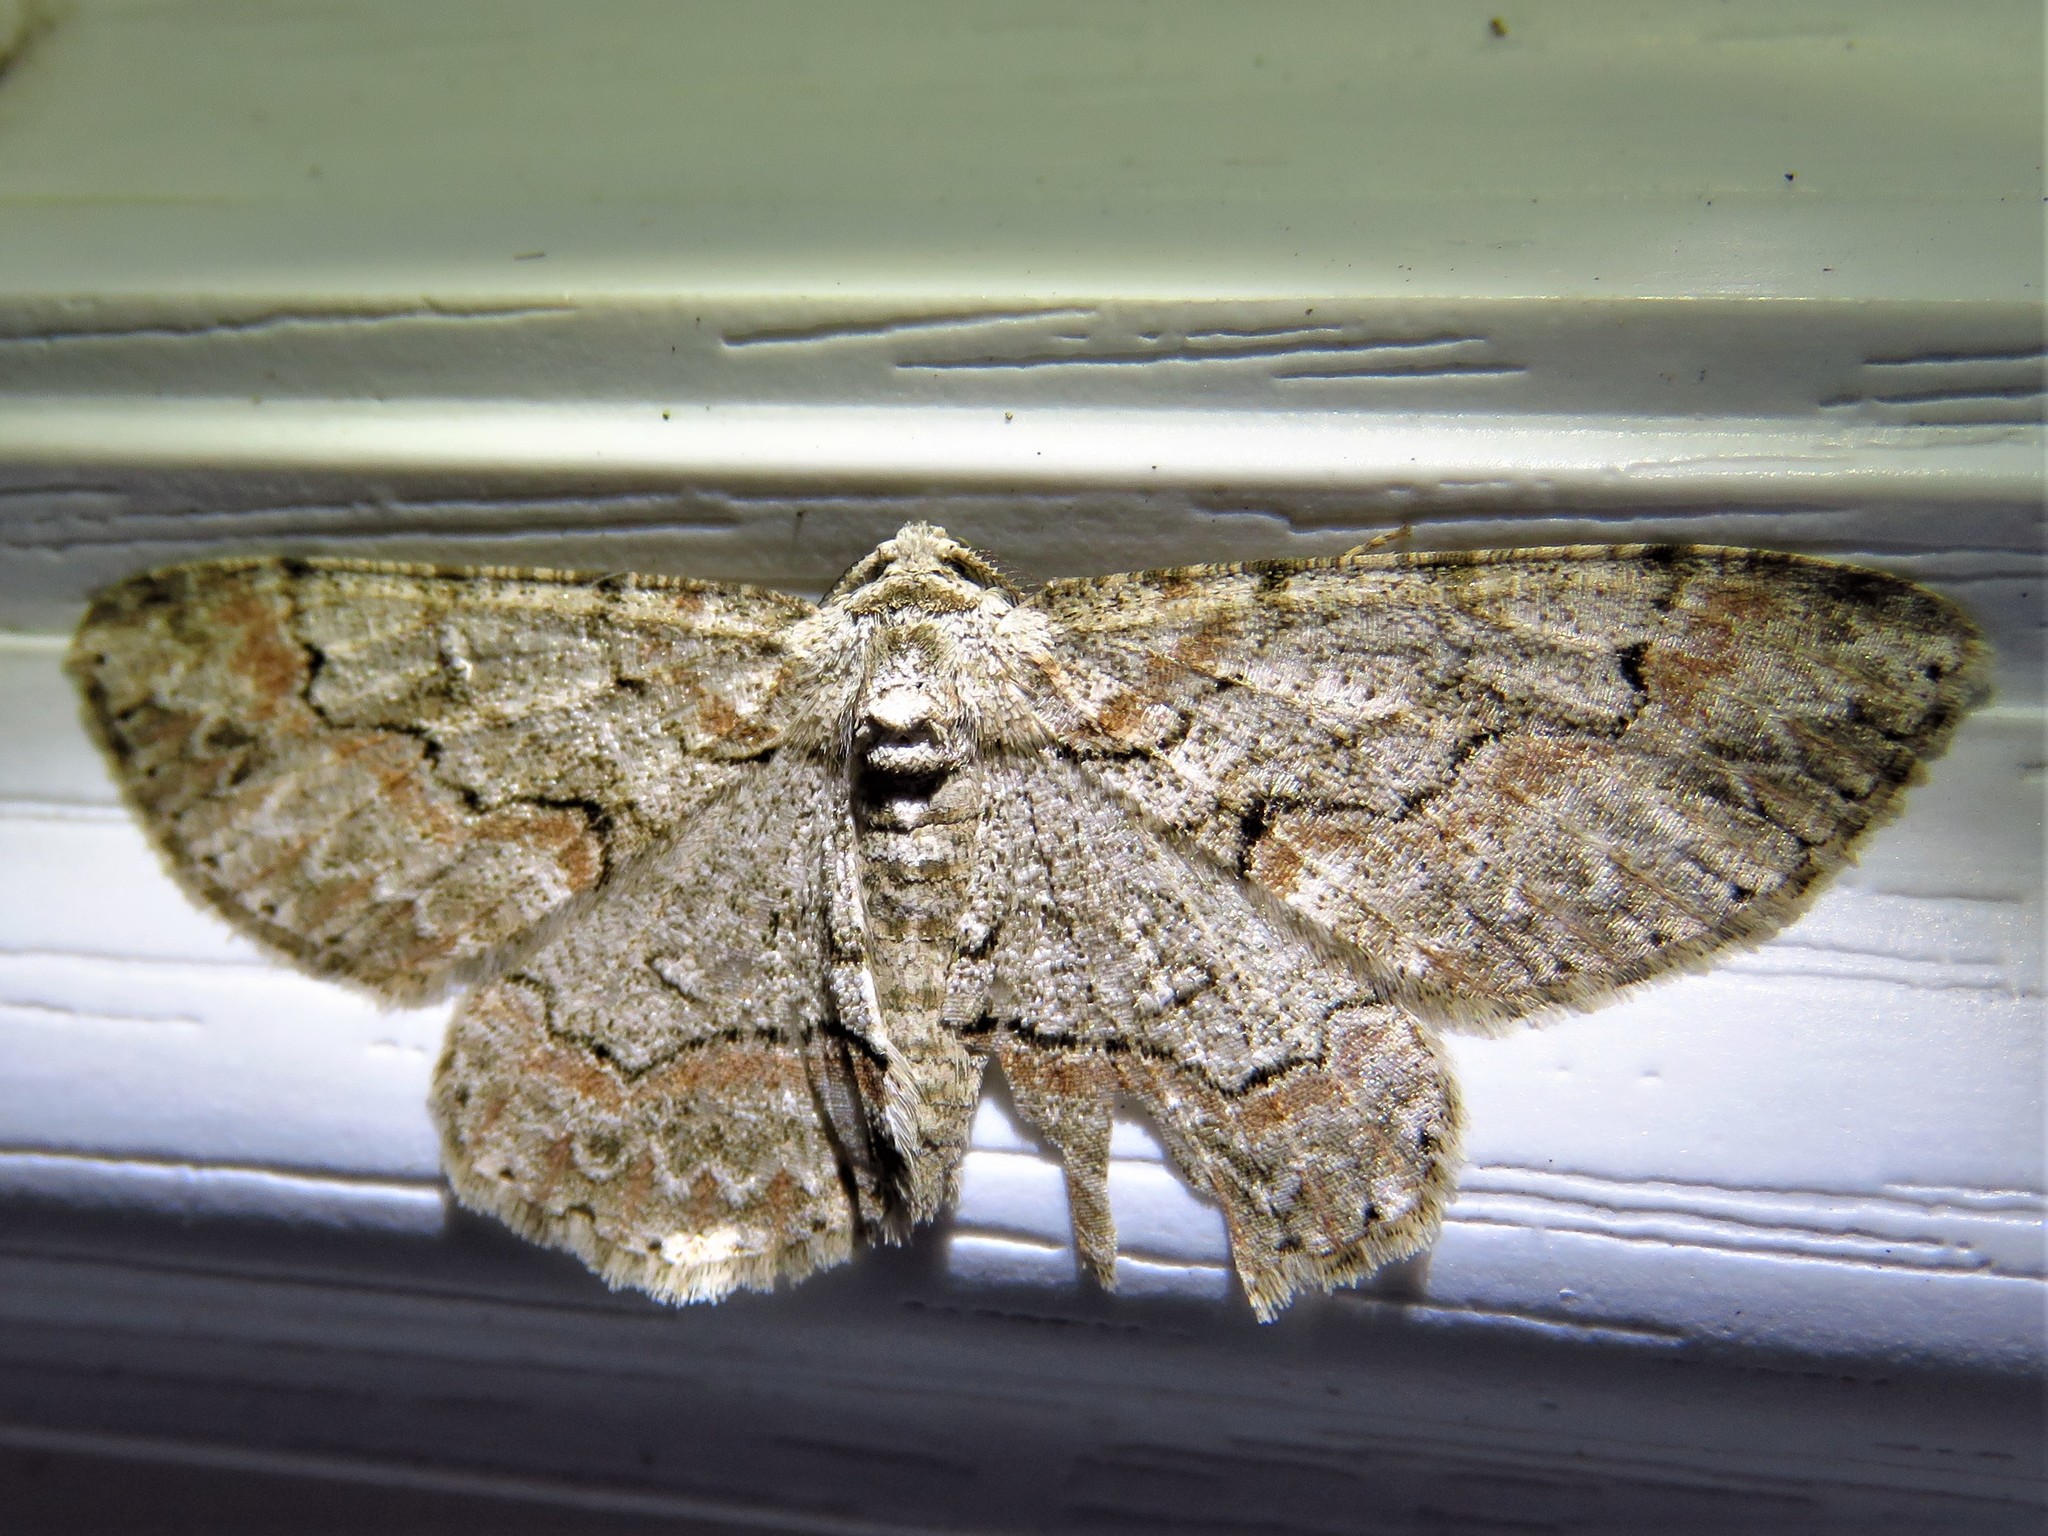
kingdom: Animalia
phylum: Arthropoda
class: Insecta
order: Lepidoptera
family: Geometridae
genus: Iridopsis
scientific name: Iridopsis defectaria
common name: Brown-shaded gray
